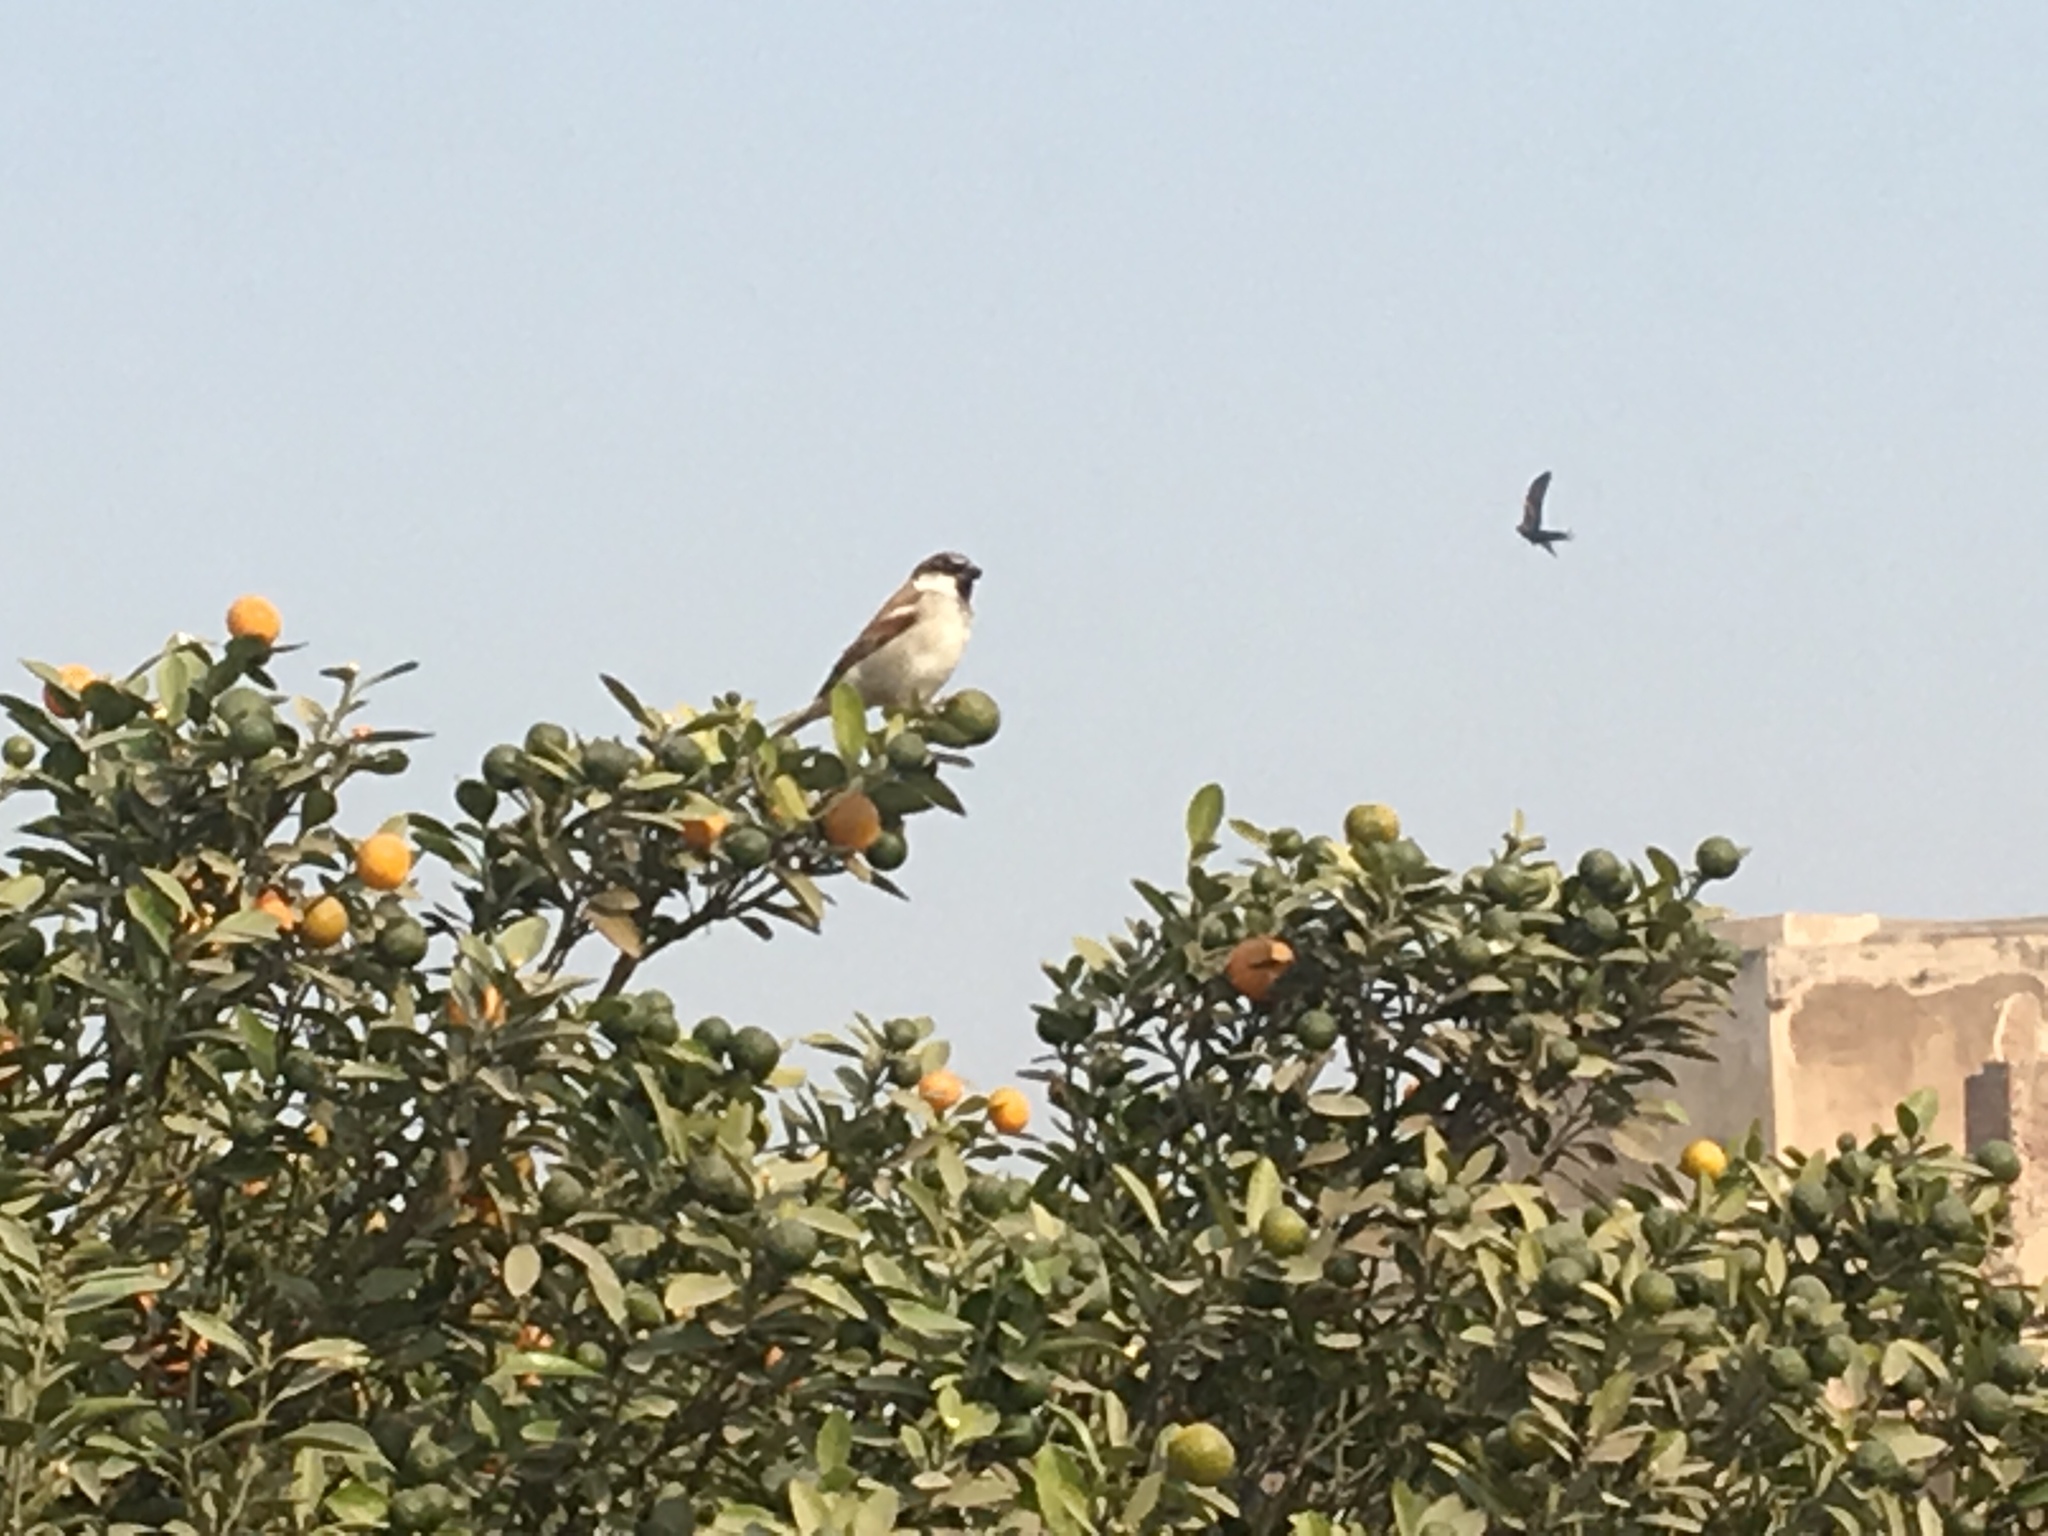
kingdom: Animalia
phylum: Chordata
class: Aves
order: Passeriformes
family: Passeridae
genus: Passer
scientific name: Passer domesticus
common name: House sparrow
